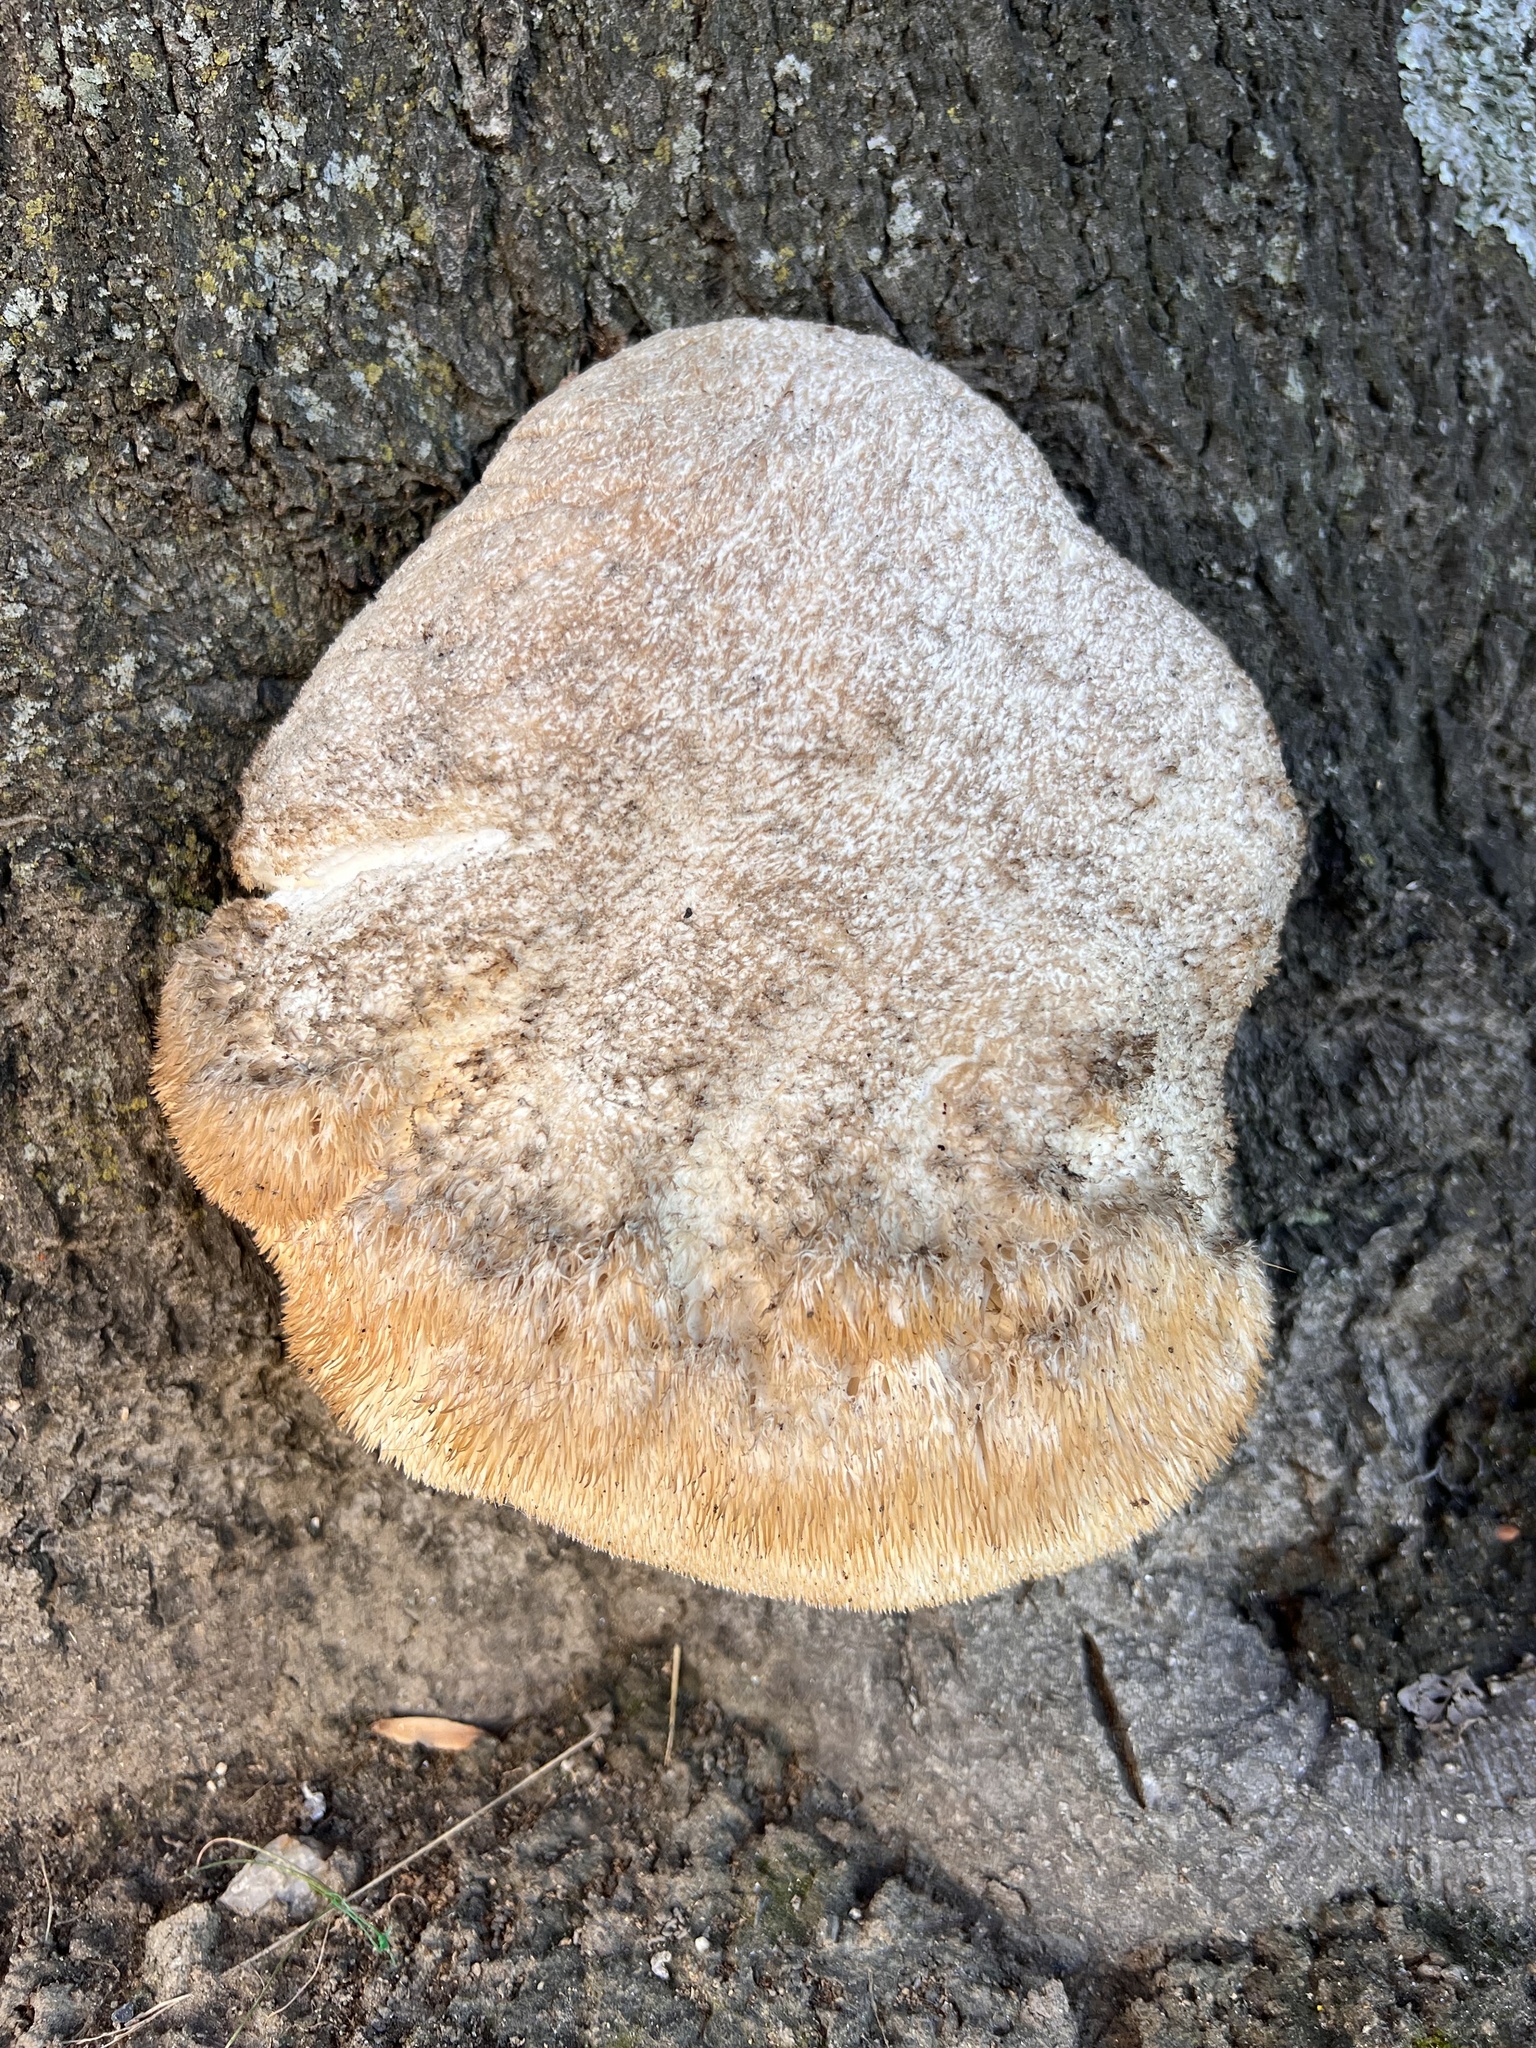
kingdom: Fungi
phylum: Basidiomycota
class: Agaricomycetes
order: Russulales
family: Hericiaceae
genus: Hericium
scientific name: Hericium erinaceus
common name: Bearded tooth
